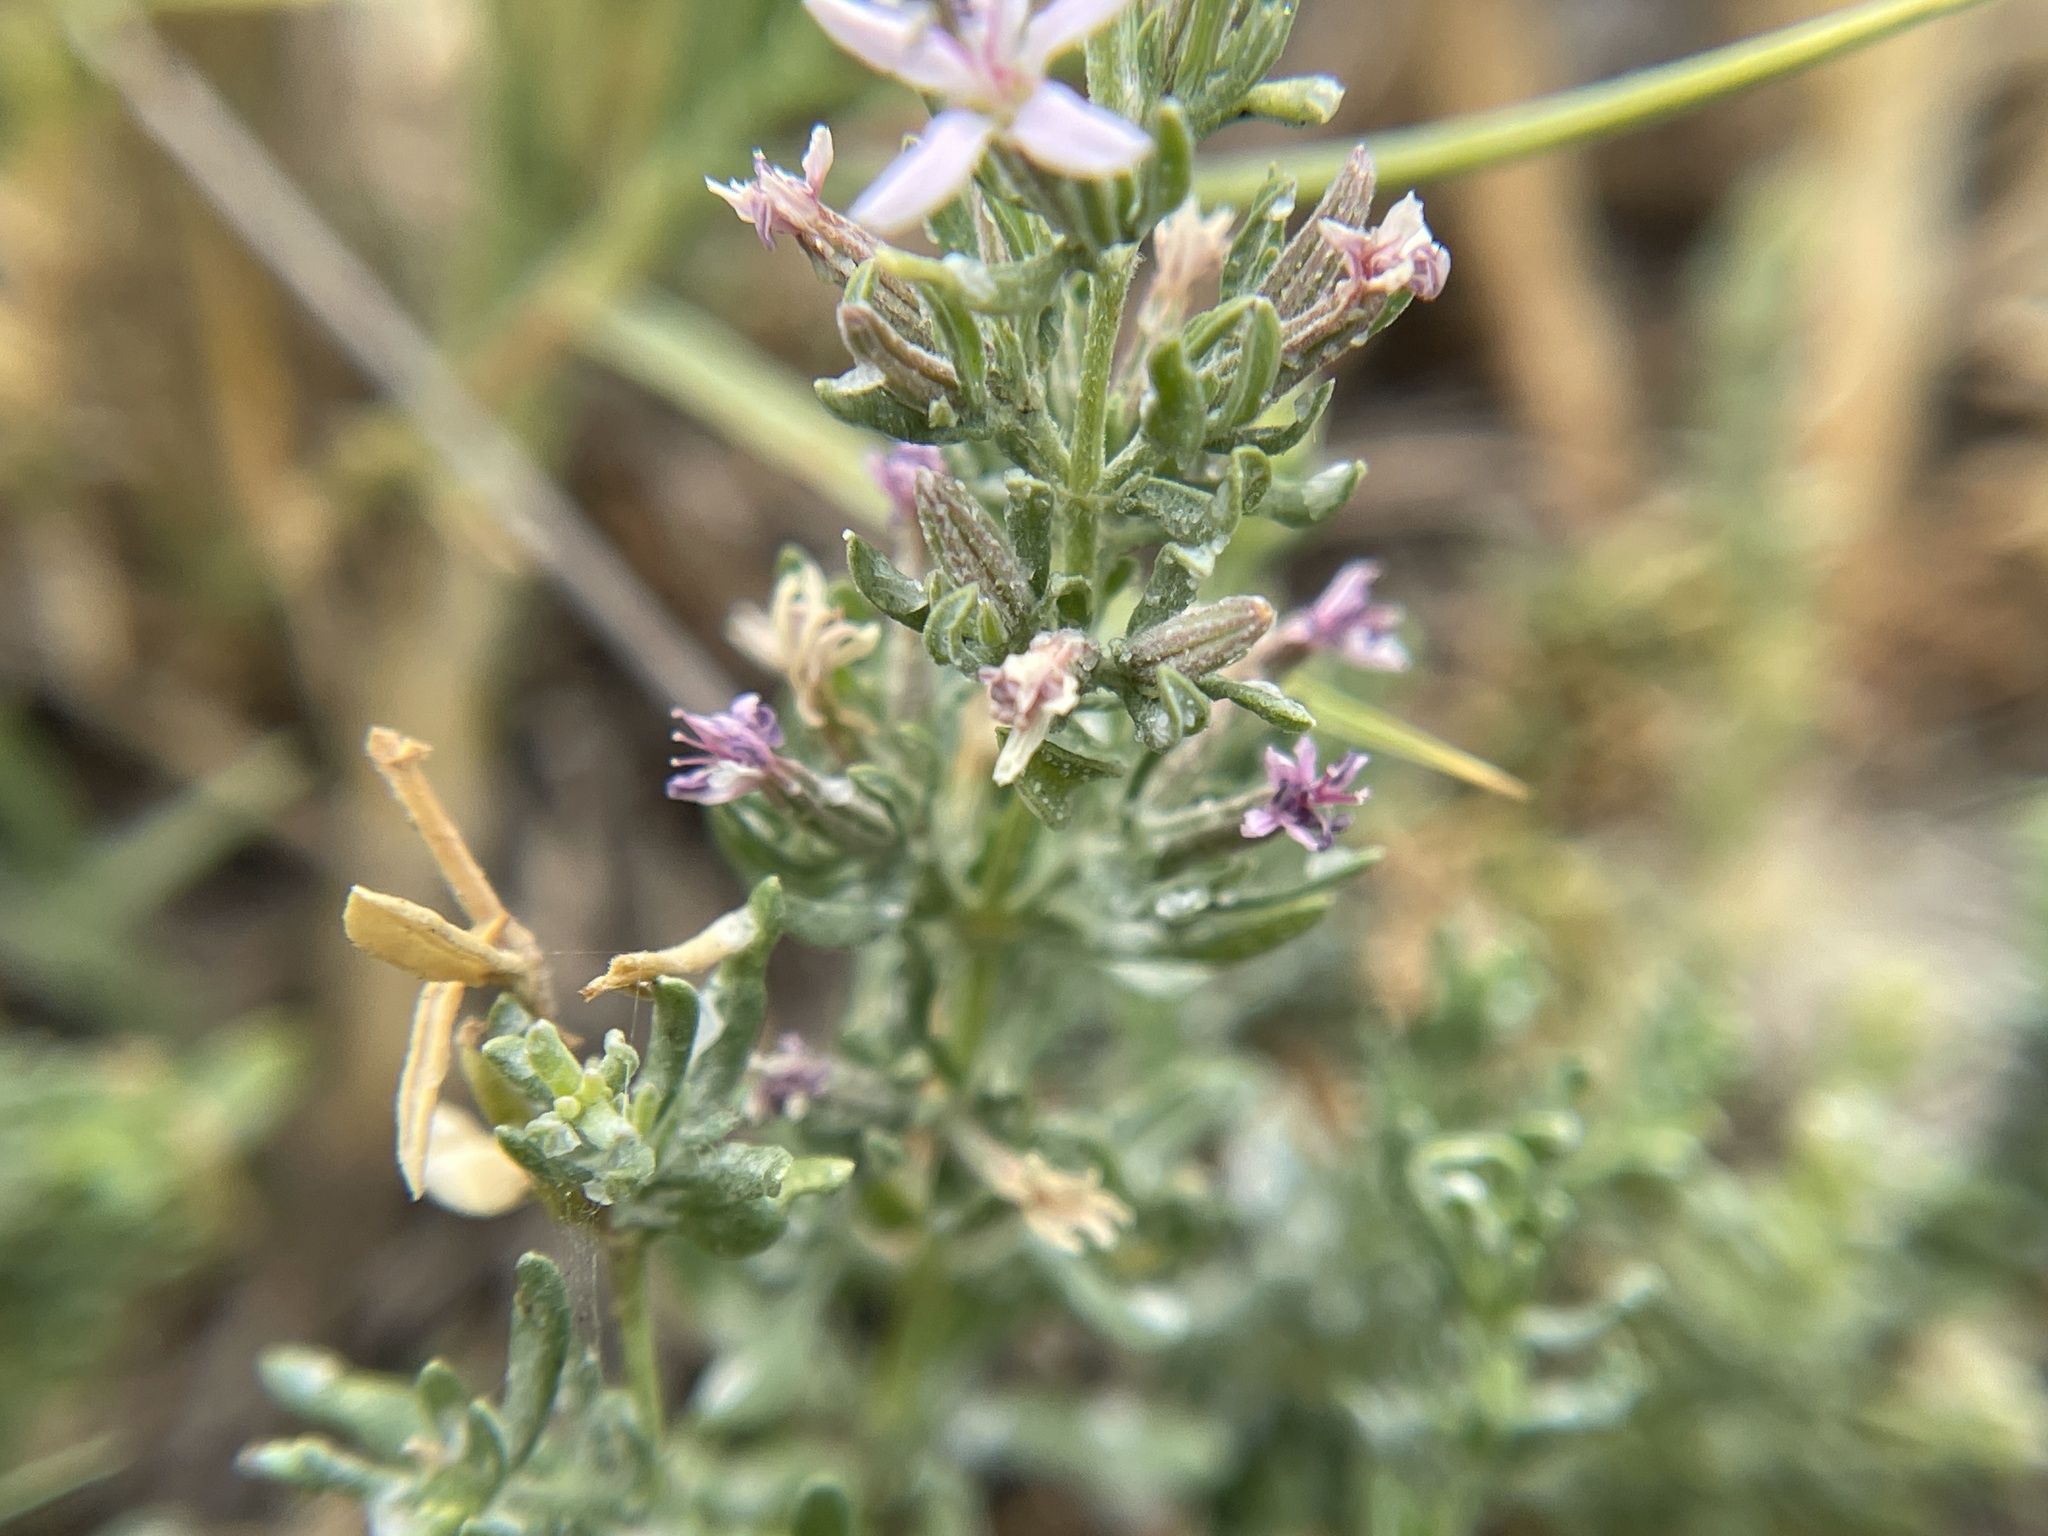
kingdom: Plantae
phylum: Tracheophyta
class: Magnoliopsida
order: Caryophyllales
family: Frankeniaceae
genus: Frankenia
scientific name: Frankenia salina
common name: Alkali seaheath
